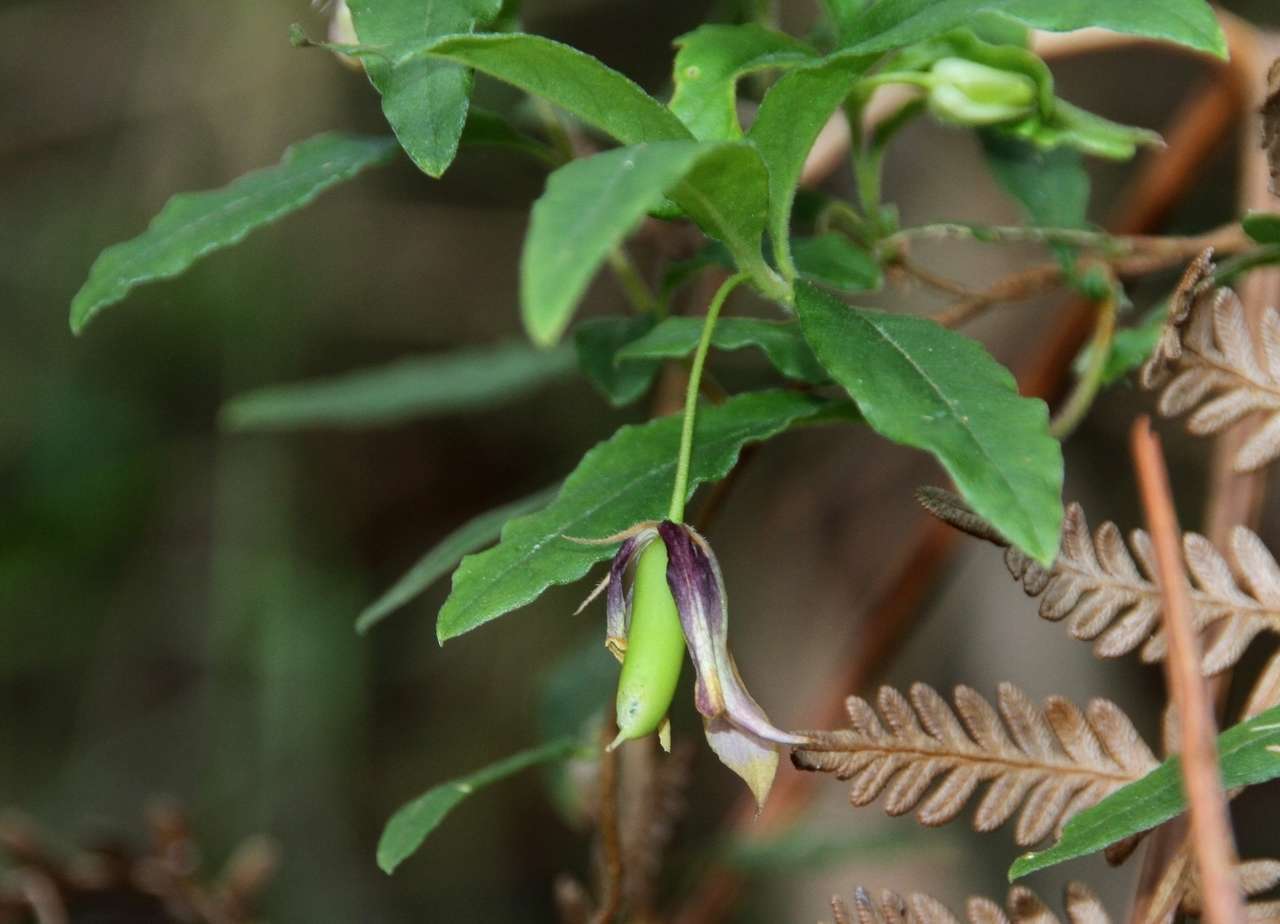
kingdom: Plantae
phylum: Tracheophyta
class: Magnoliopsida
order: Apiales
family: Pittosporaceae
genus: Billardiera
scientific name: Billardiera mutabilis
